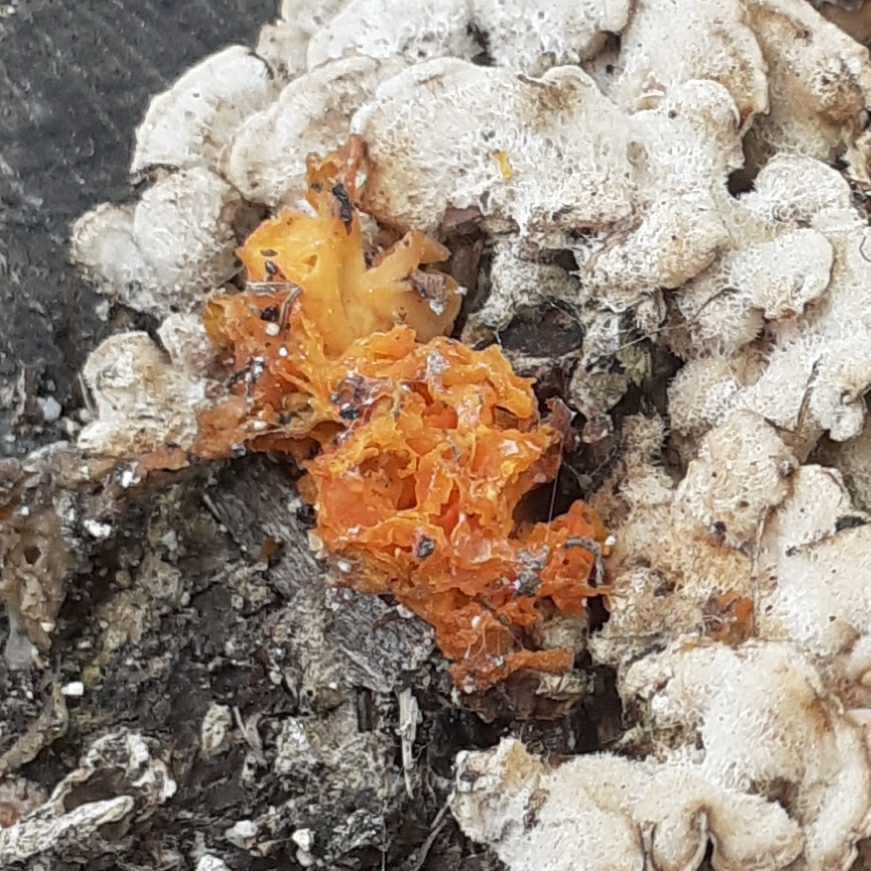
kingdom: Fungi
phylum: Basidiomycota
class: Tremellomycetes
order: Tremellales
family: Naemateliaceae
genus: Naematelia
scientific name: Naematelia aurantia
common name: Golden ear
